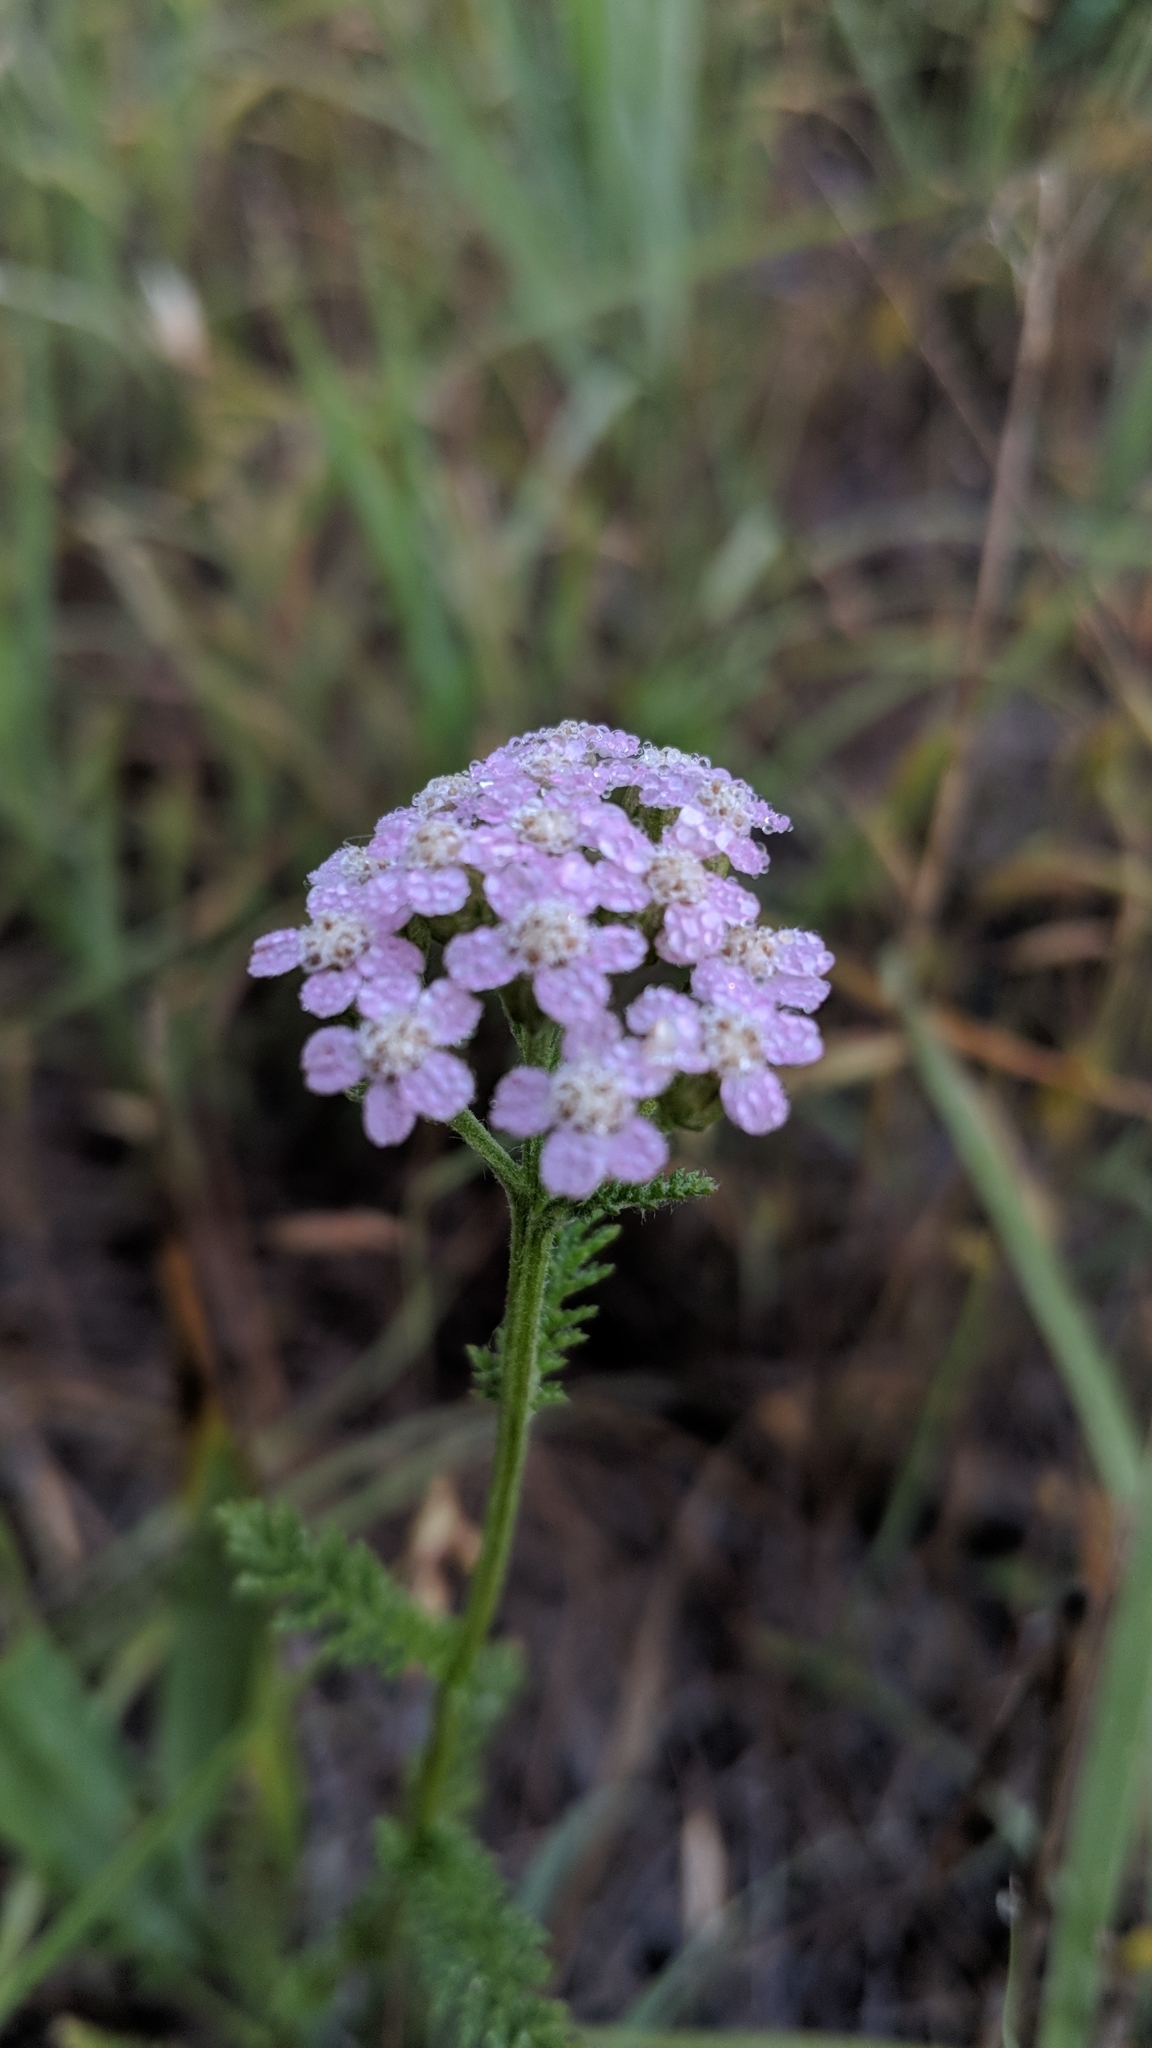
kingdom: Plantae
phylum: Tracheophyta
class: Magnoliopsida
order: Asterales
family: Asteraceae
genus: Achillea
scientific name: Achillea millefolium
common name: Yarrow
